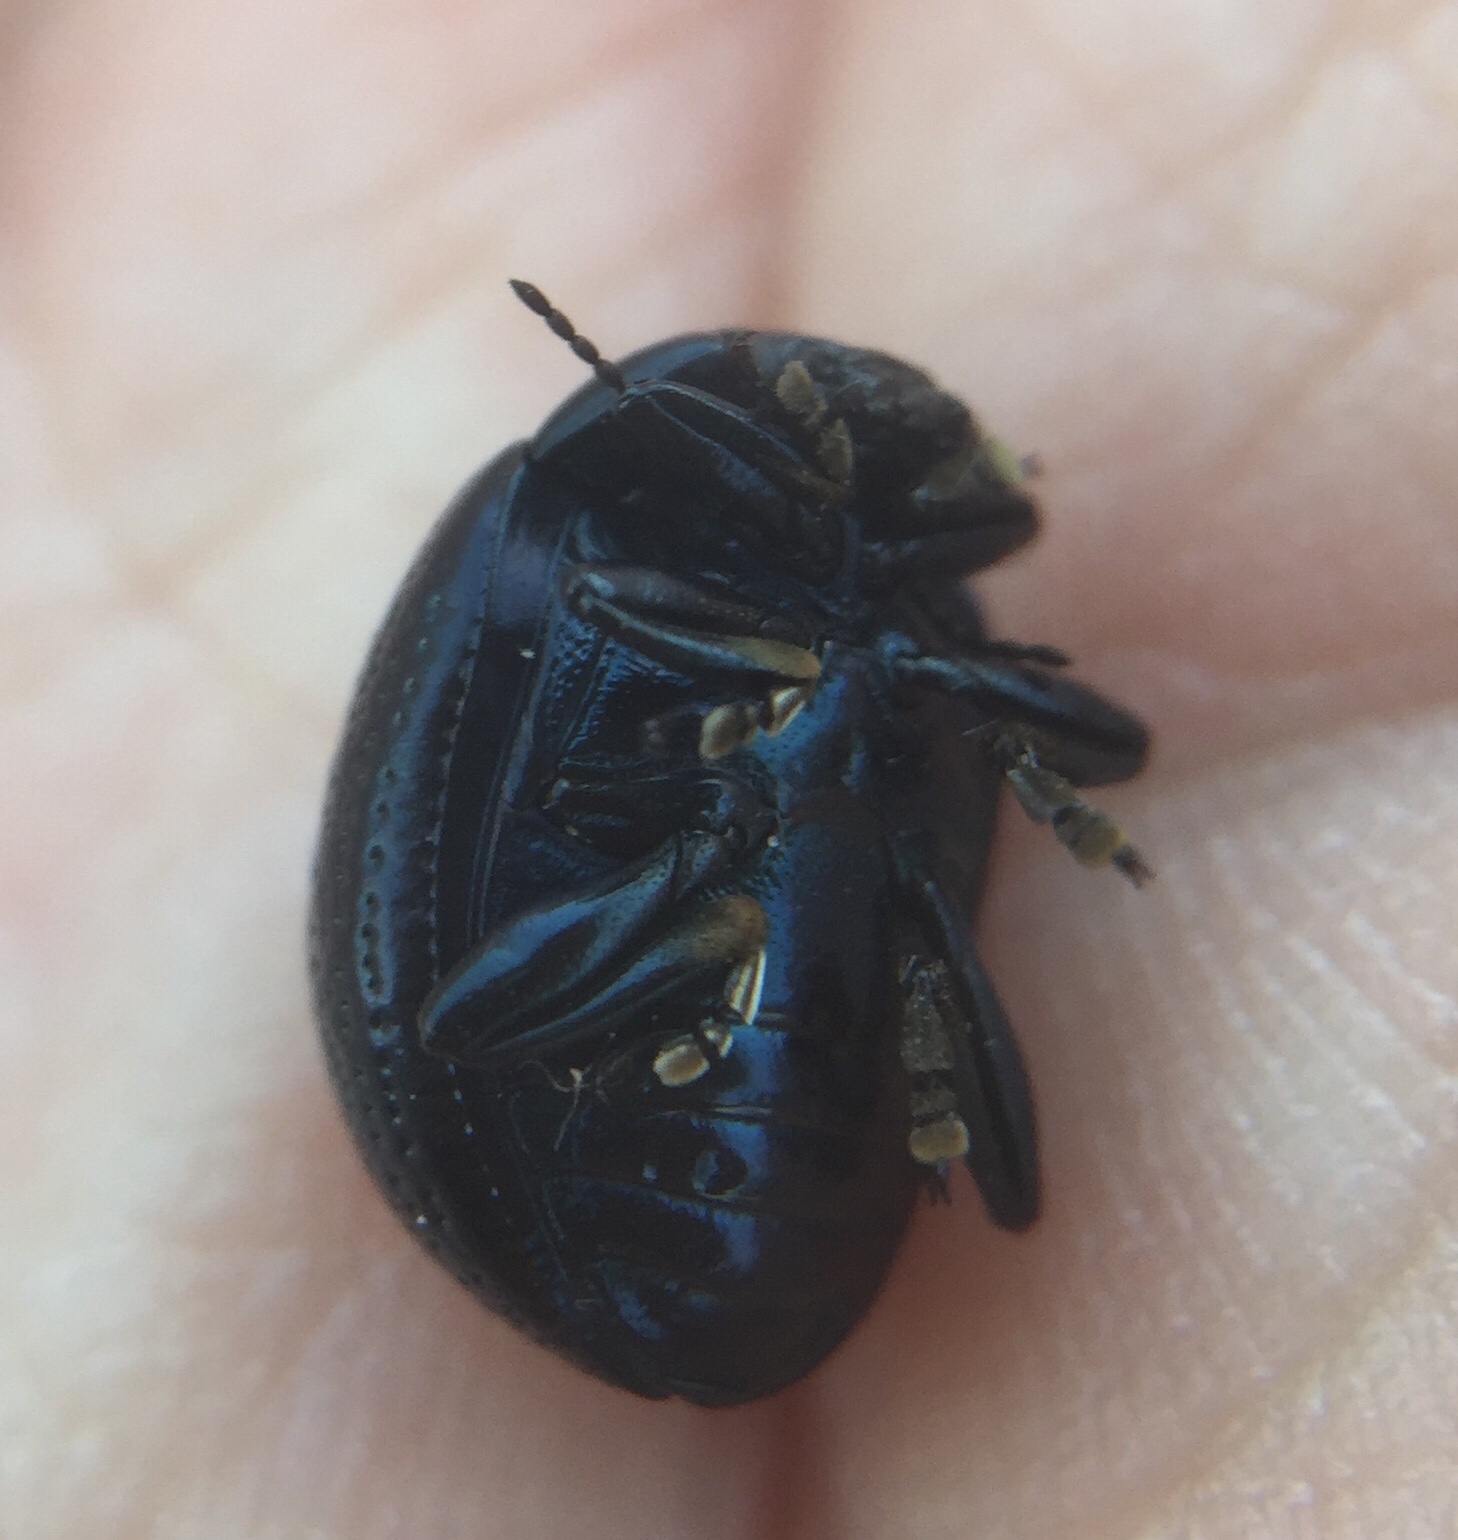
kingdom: Animalia
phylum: Arthropoda
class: Insecta
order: Coleoptera
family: Chrysomelidae
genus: Chrysolina
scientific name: Chrysolina vernalis
